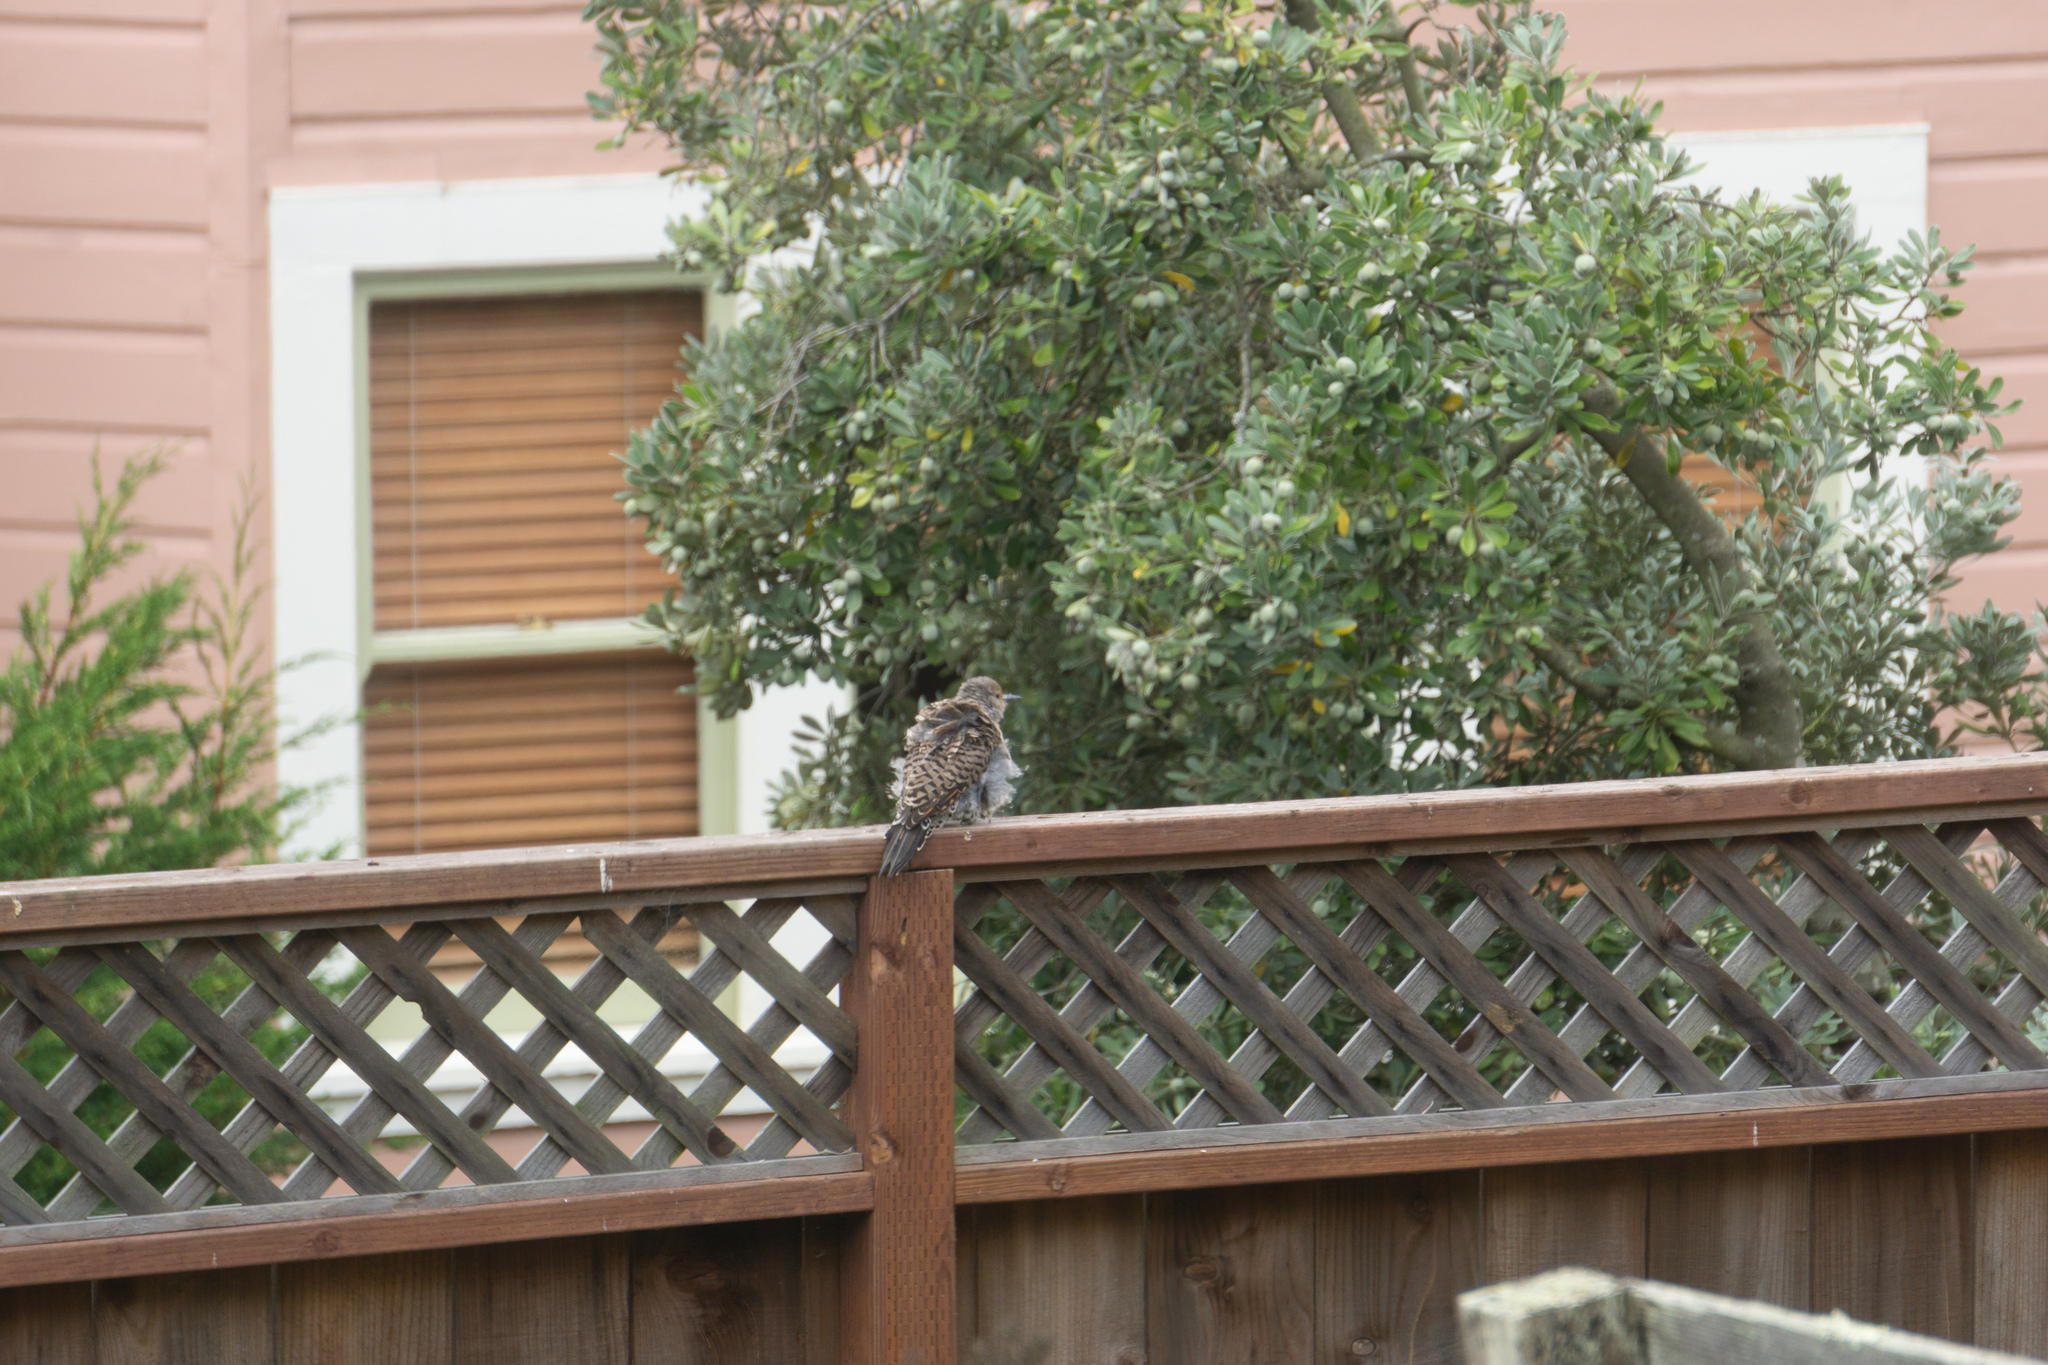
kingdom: Animalia
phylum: Chordata
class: Aves
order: Piciformes
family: Picidae
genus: Colaptes
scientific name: Colaptes auratus
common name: Northern flicker
